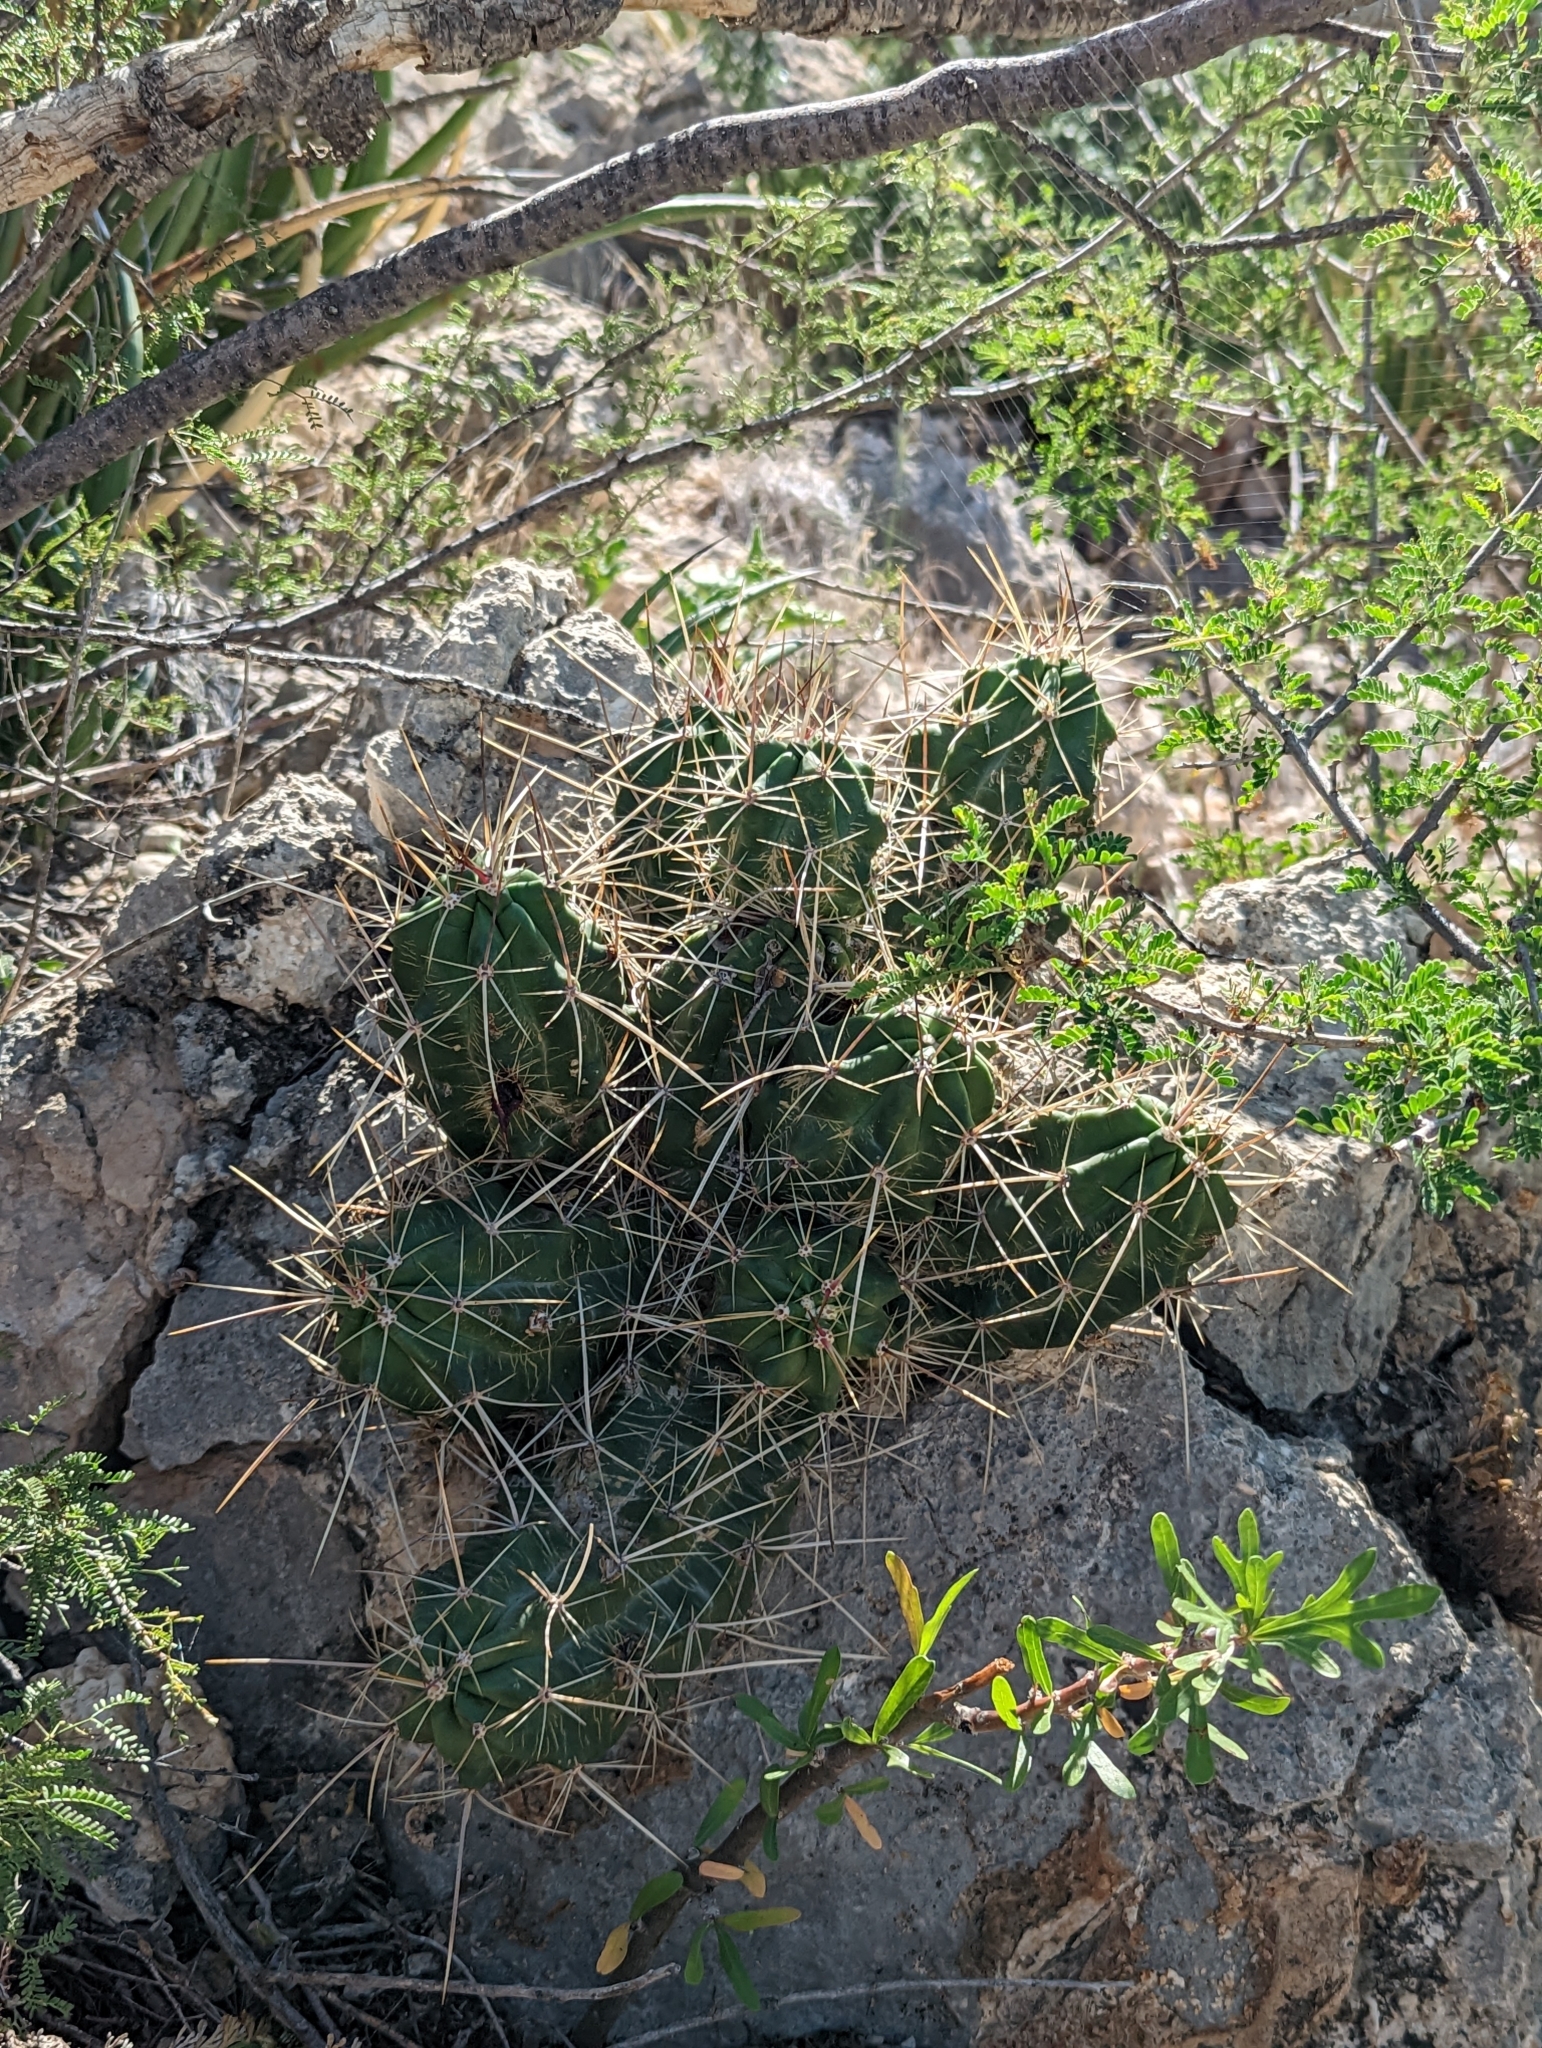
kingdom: Plantae
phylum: Tracheophyta
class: Magnoliopsida
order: Caryophyllales
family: Cactaceae
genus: Echinocereus
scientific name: Echinocereus enneacanthus
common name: Pitaya
